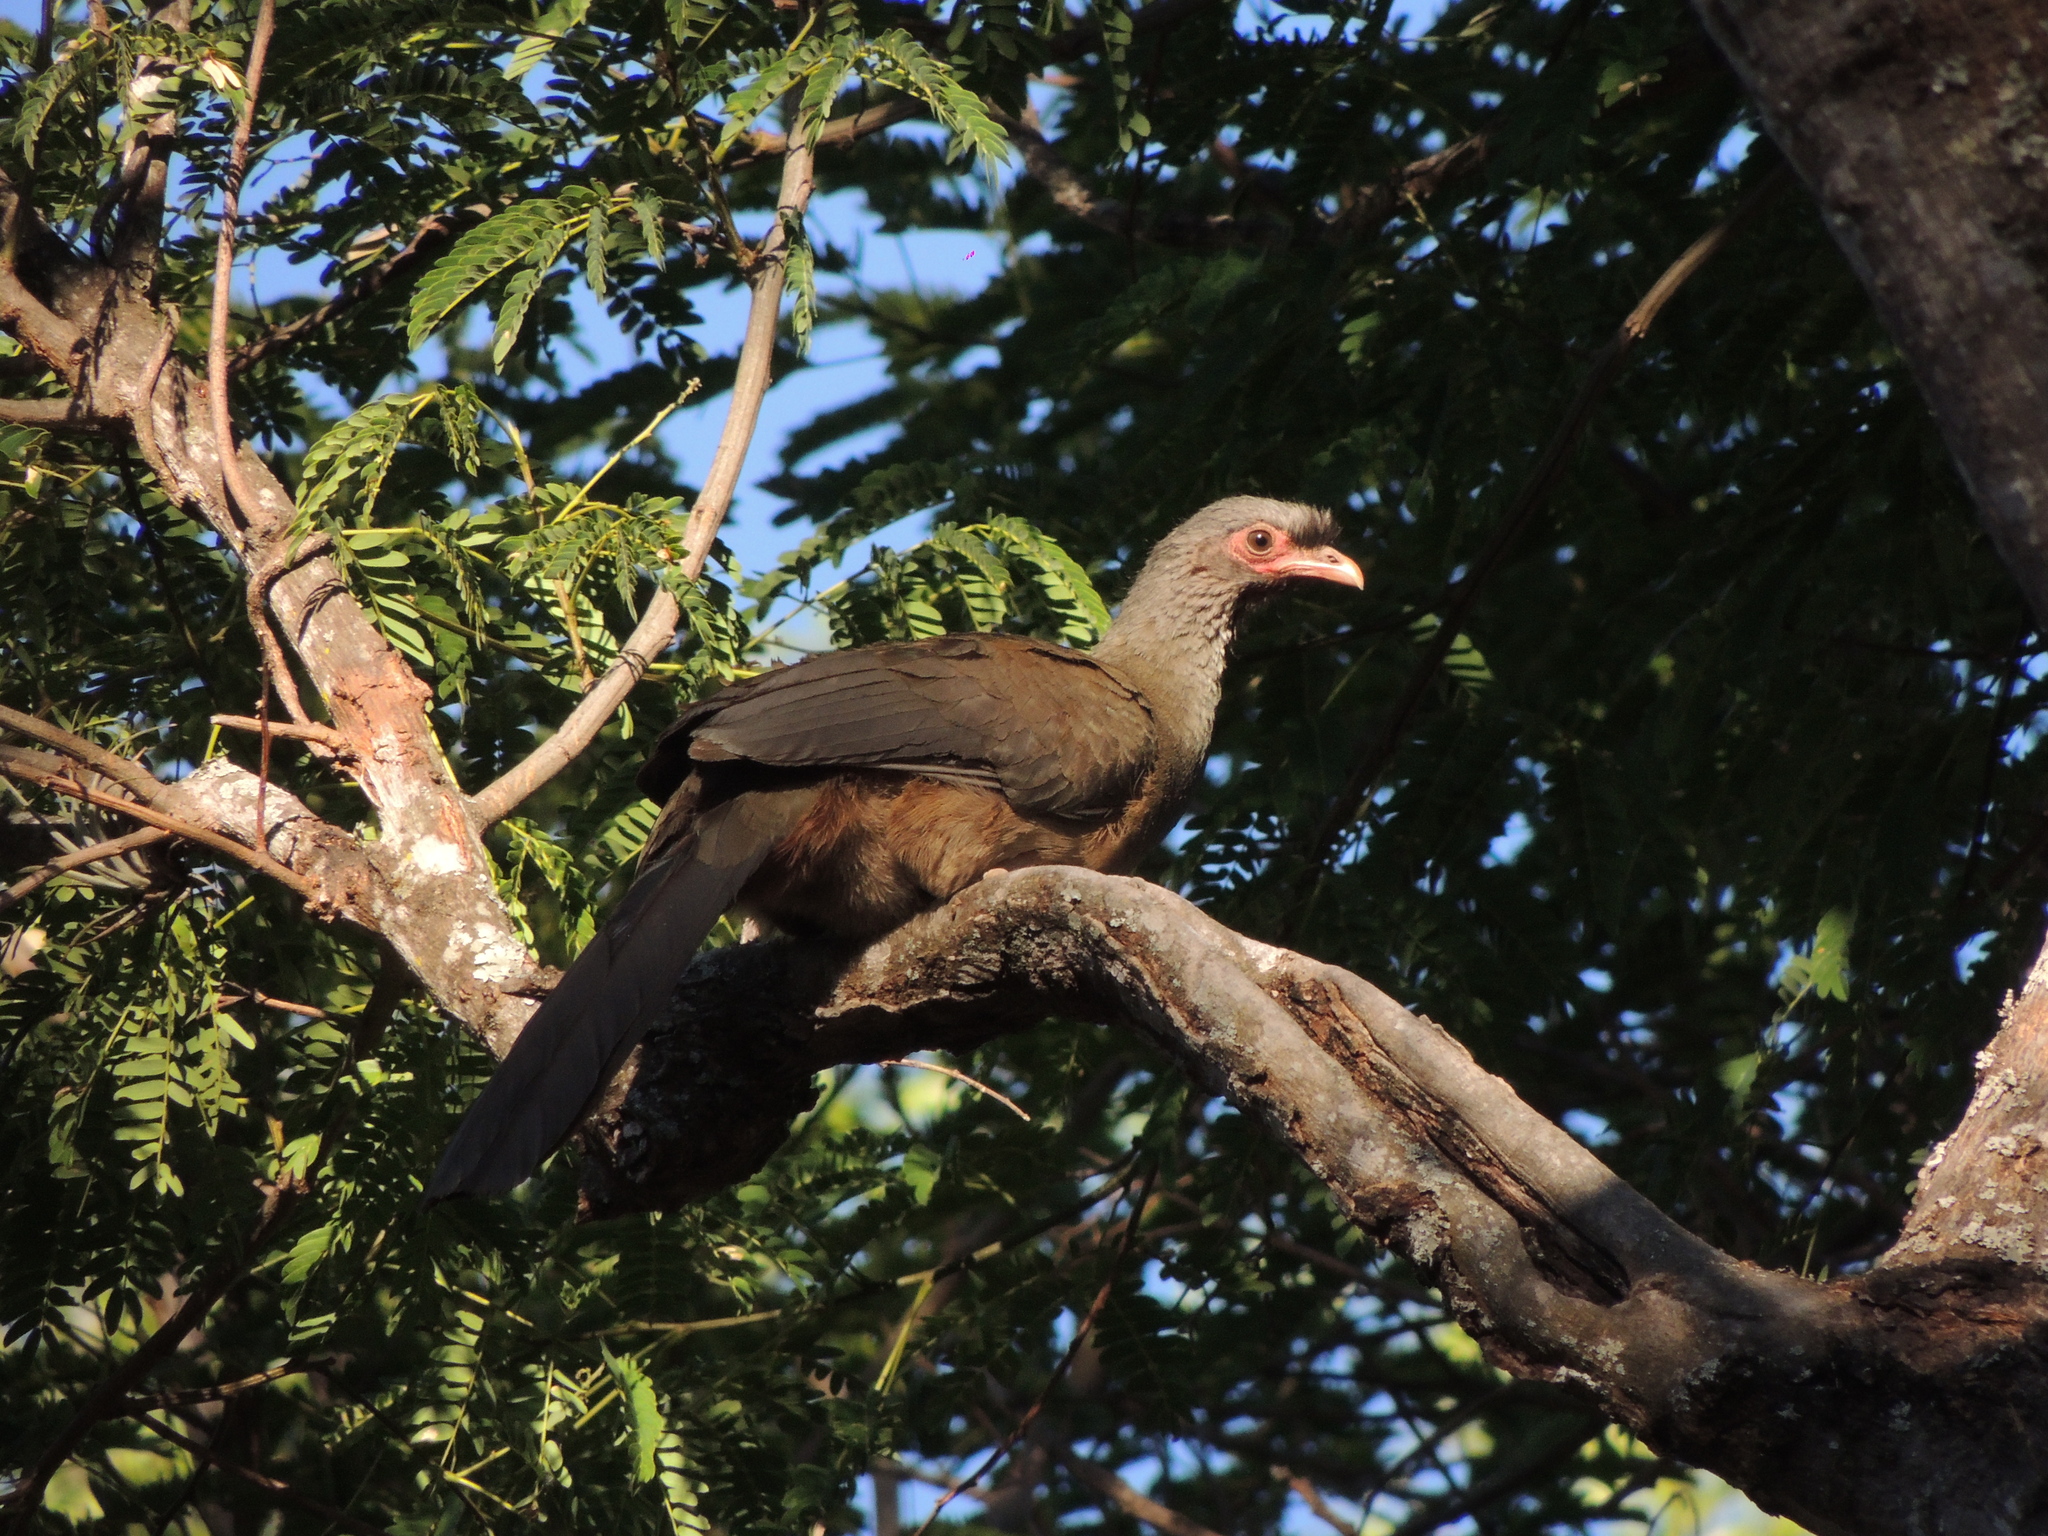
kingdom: Animalia
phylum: Chordata
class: Aves
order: Galliformes
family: Cracidae
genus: Ortalis
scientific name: Ortalis canicollis
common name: Chaco chachalaca
